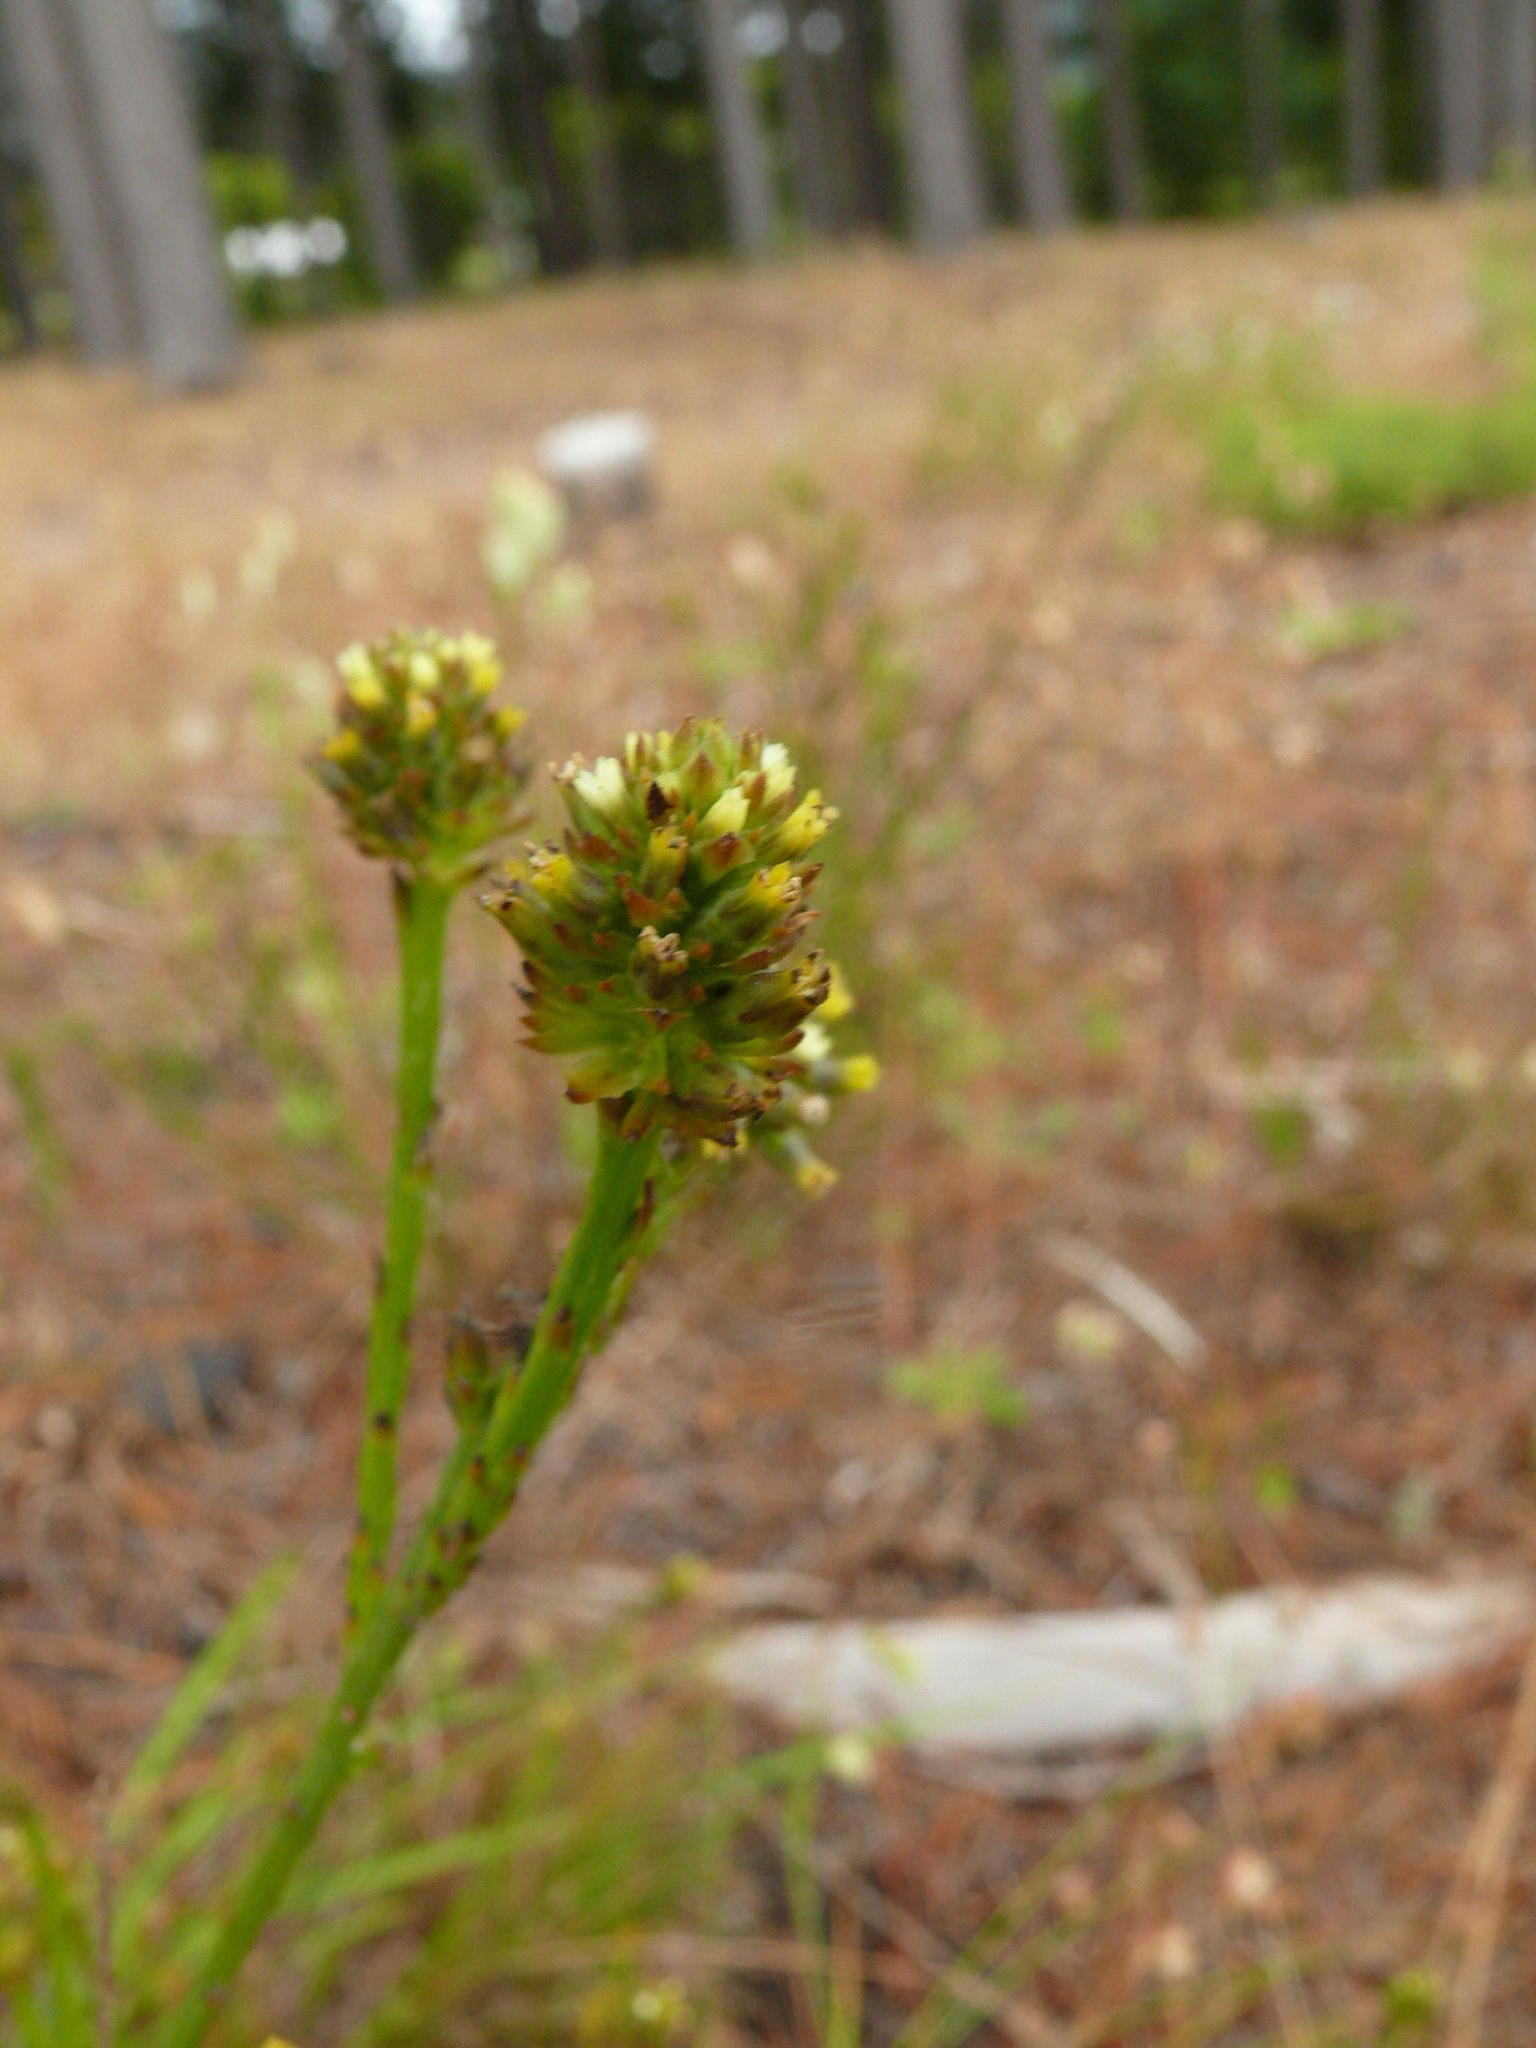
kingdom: Plantae
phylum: Tracheophyta
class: Magnoliopsida
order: Santalales
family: Thesiaceae
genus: Thesium
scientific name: Thesium aggregatum
